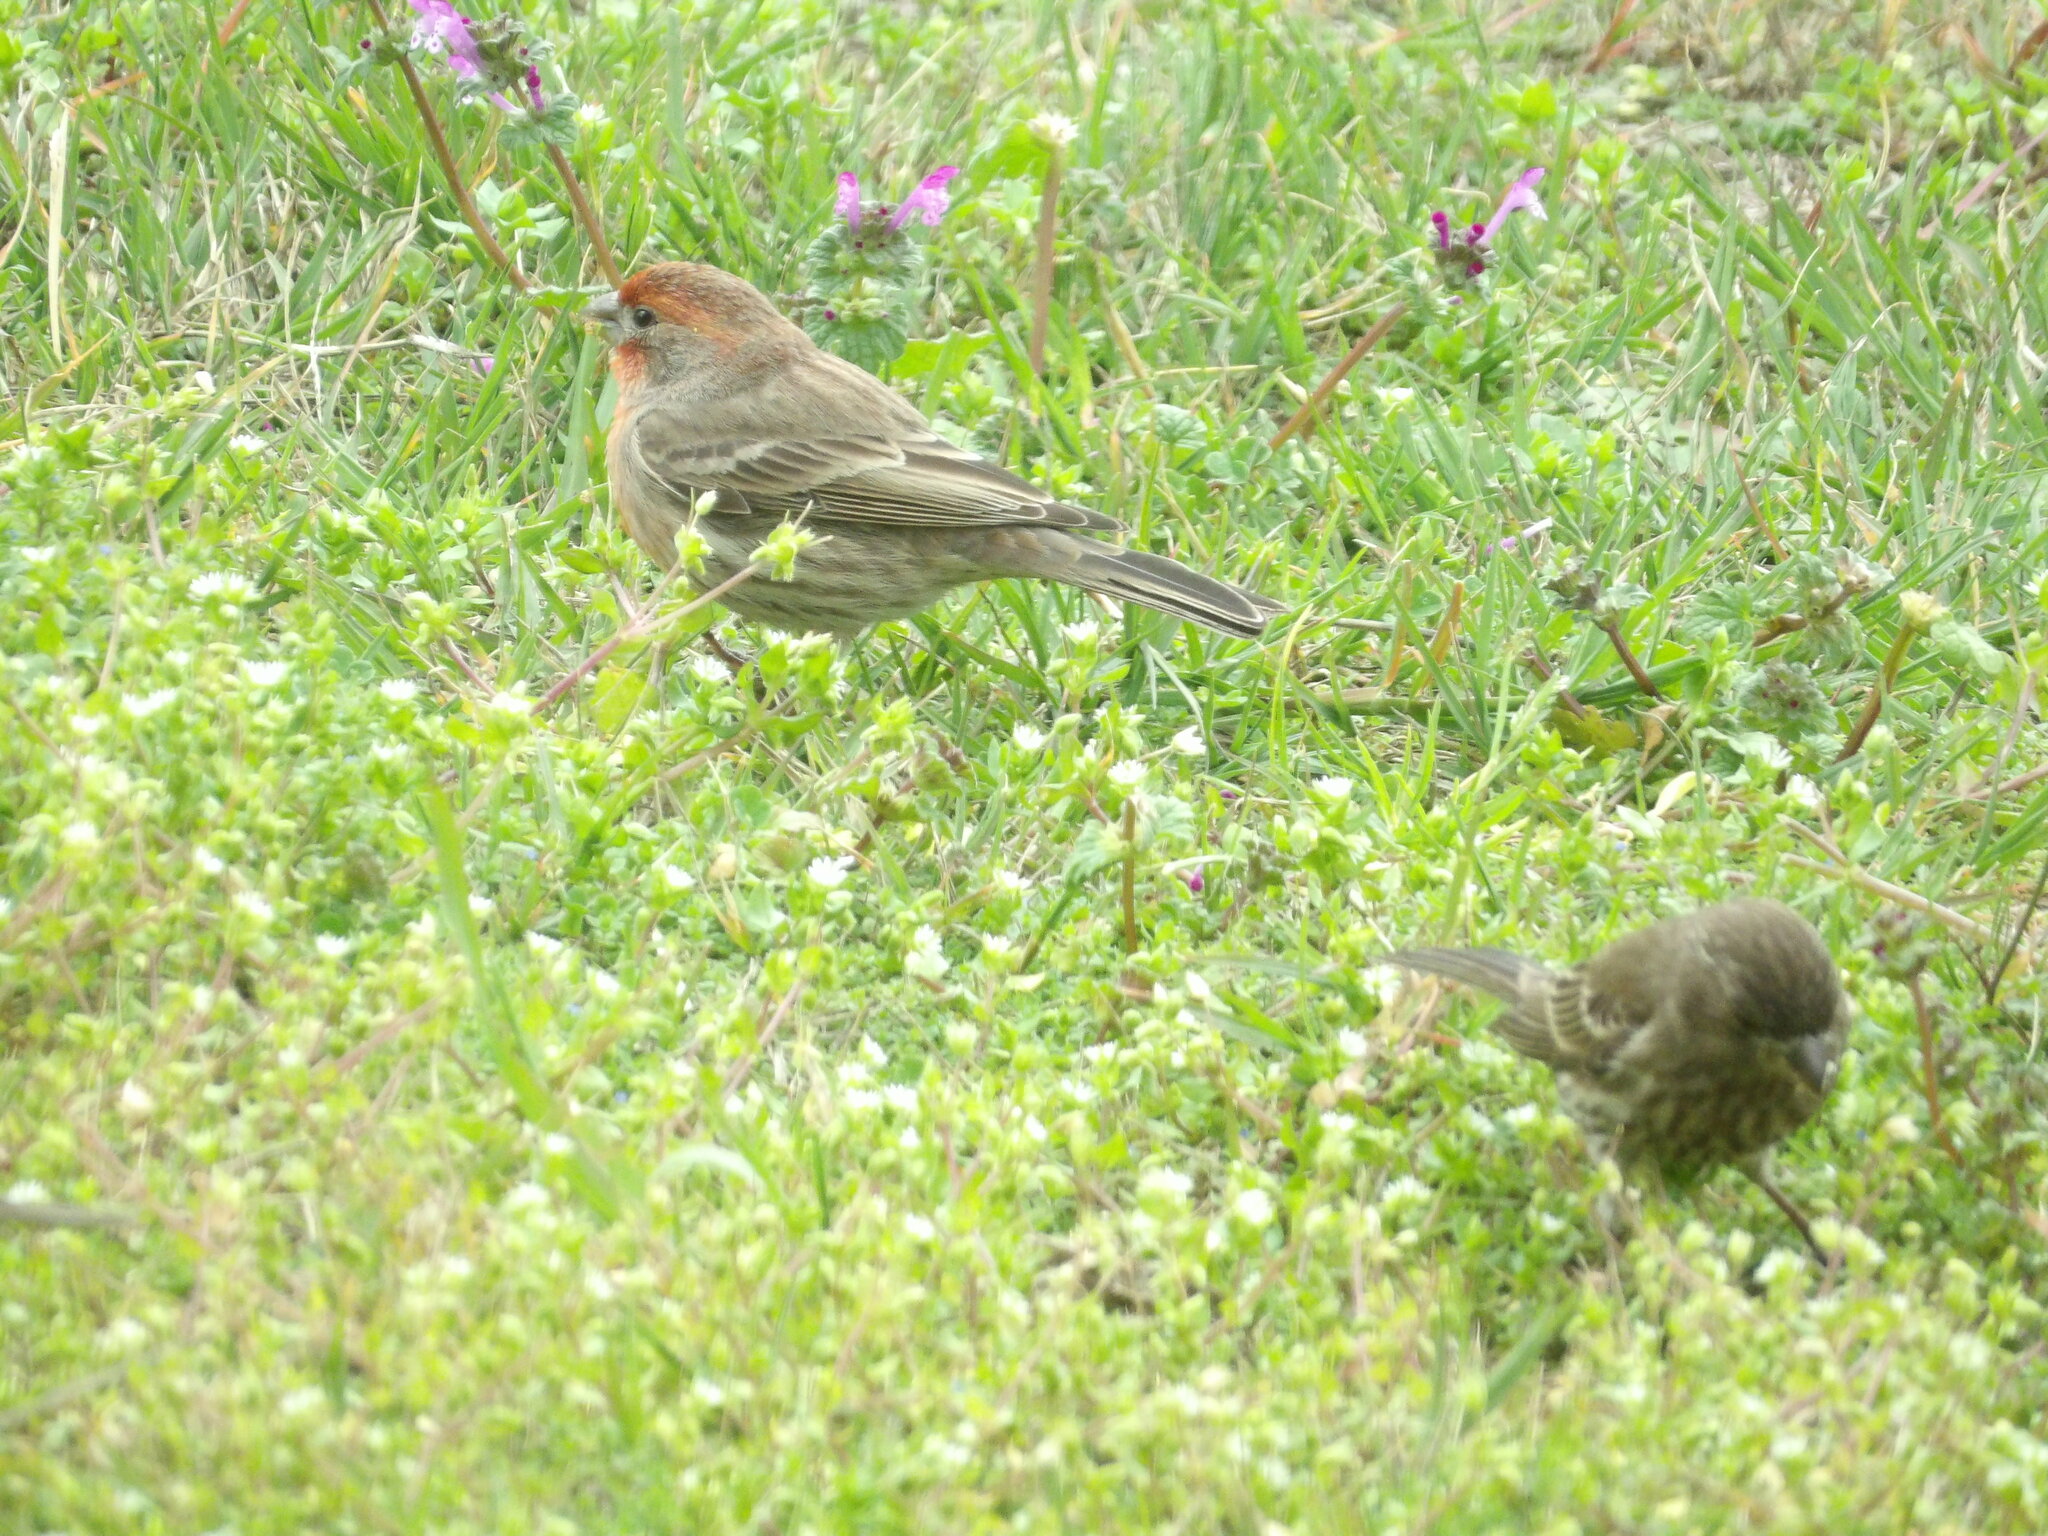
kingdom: Animalia
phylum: Chordata
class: Aves
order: Passeriformes
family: Fringillidae
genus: Haemorhous
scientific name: Haemorhous mexicanus
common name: House finch
